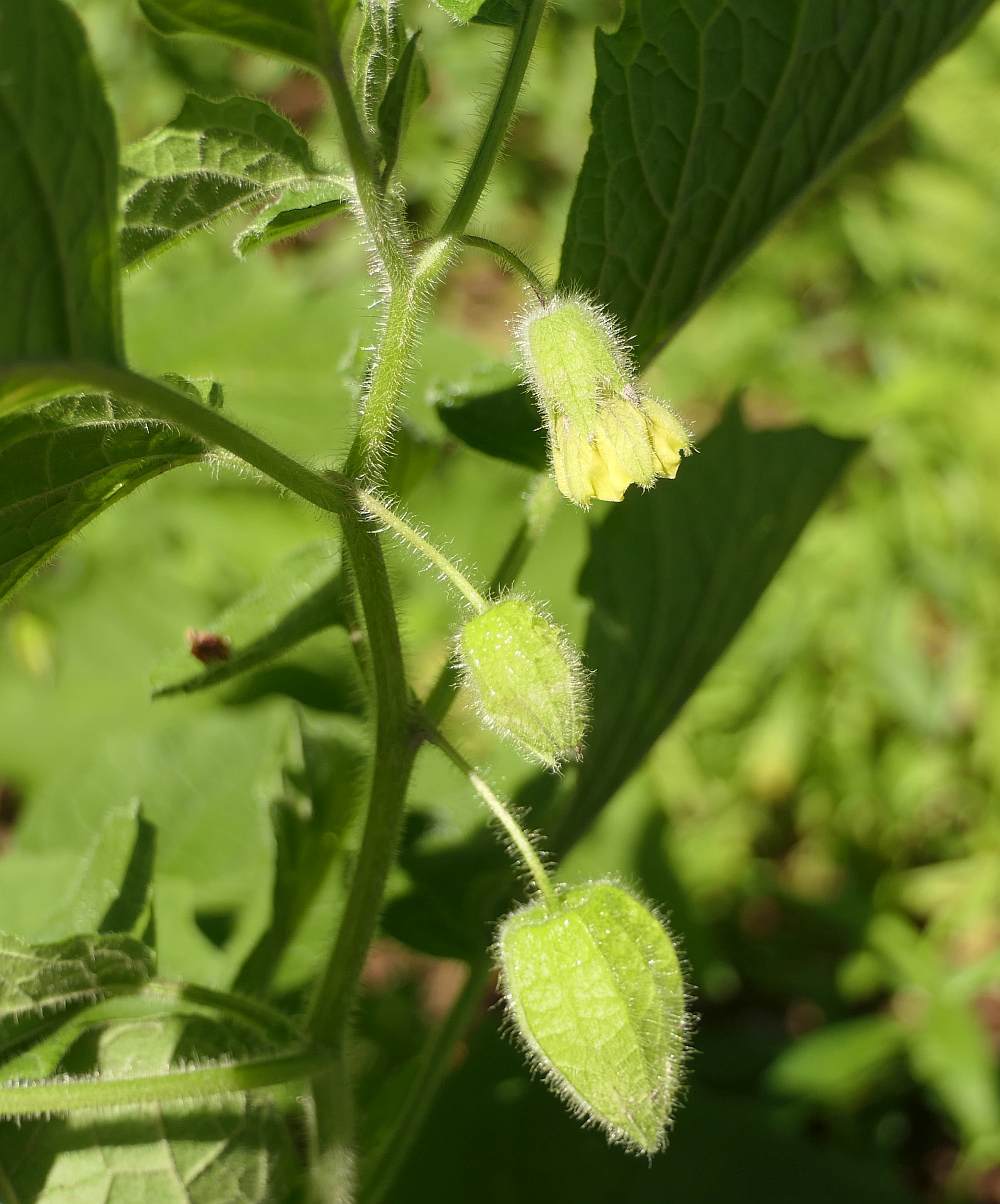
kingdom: Plantae
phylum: Tracheophyta
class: Magnoliopsida
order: Solanales
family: Solanaceae
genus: Physalis
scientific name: Physalis heterophylla
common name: Clammy ground-cherry
